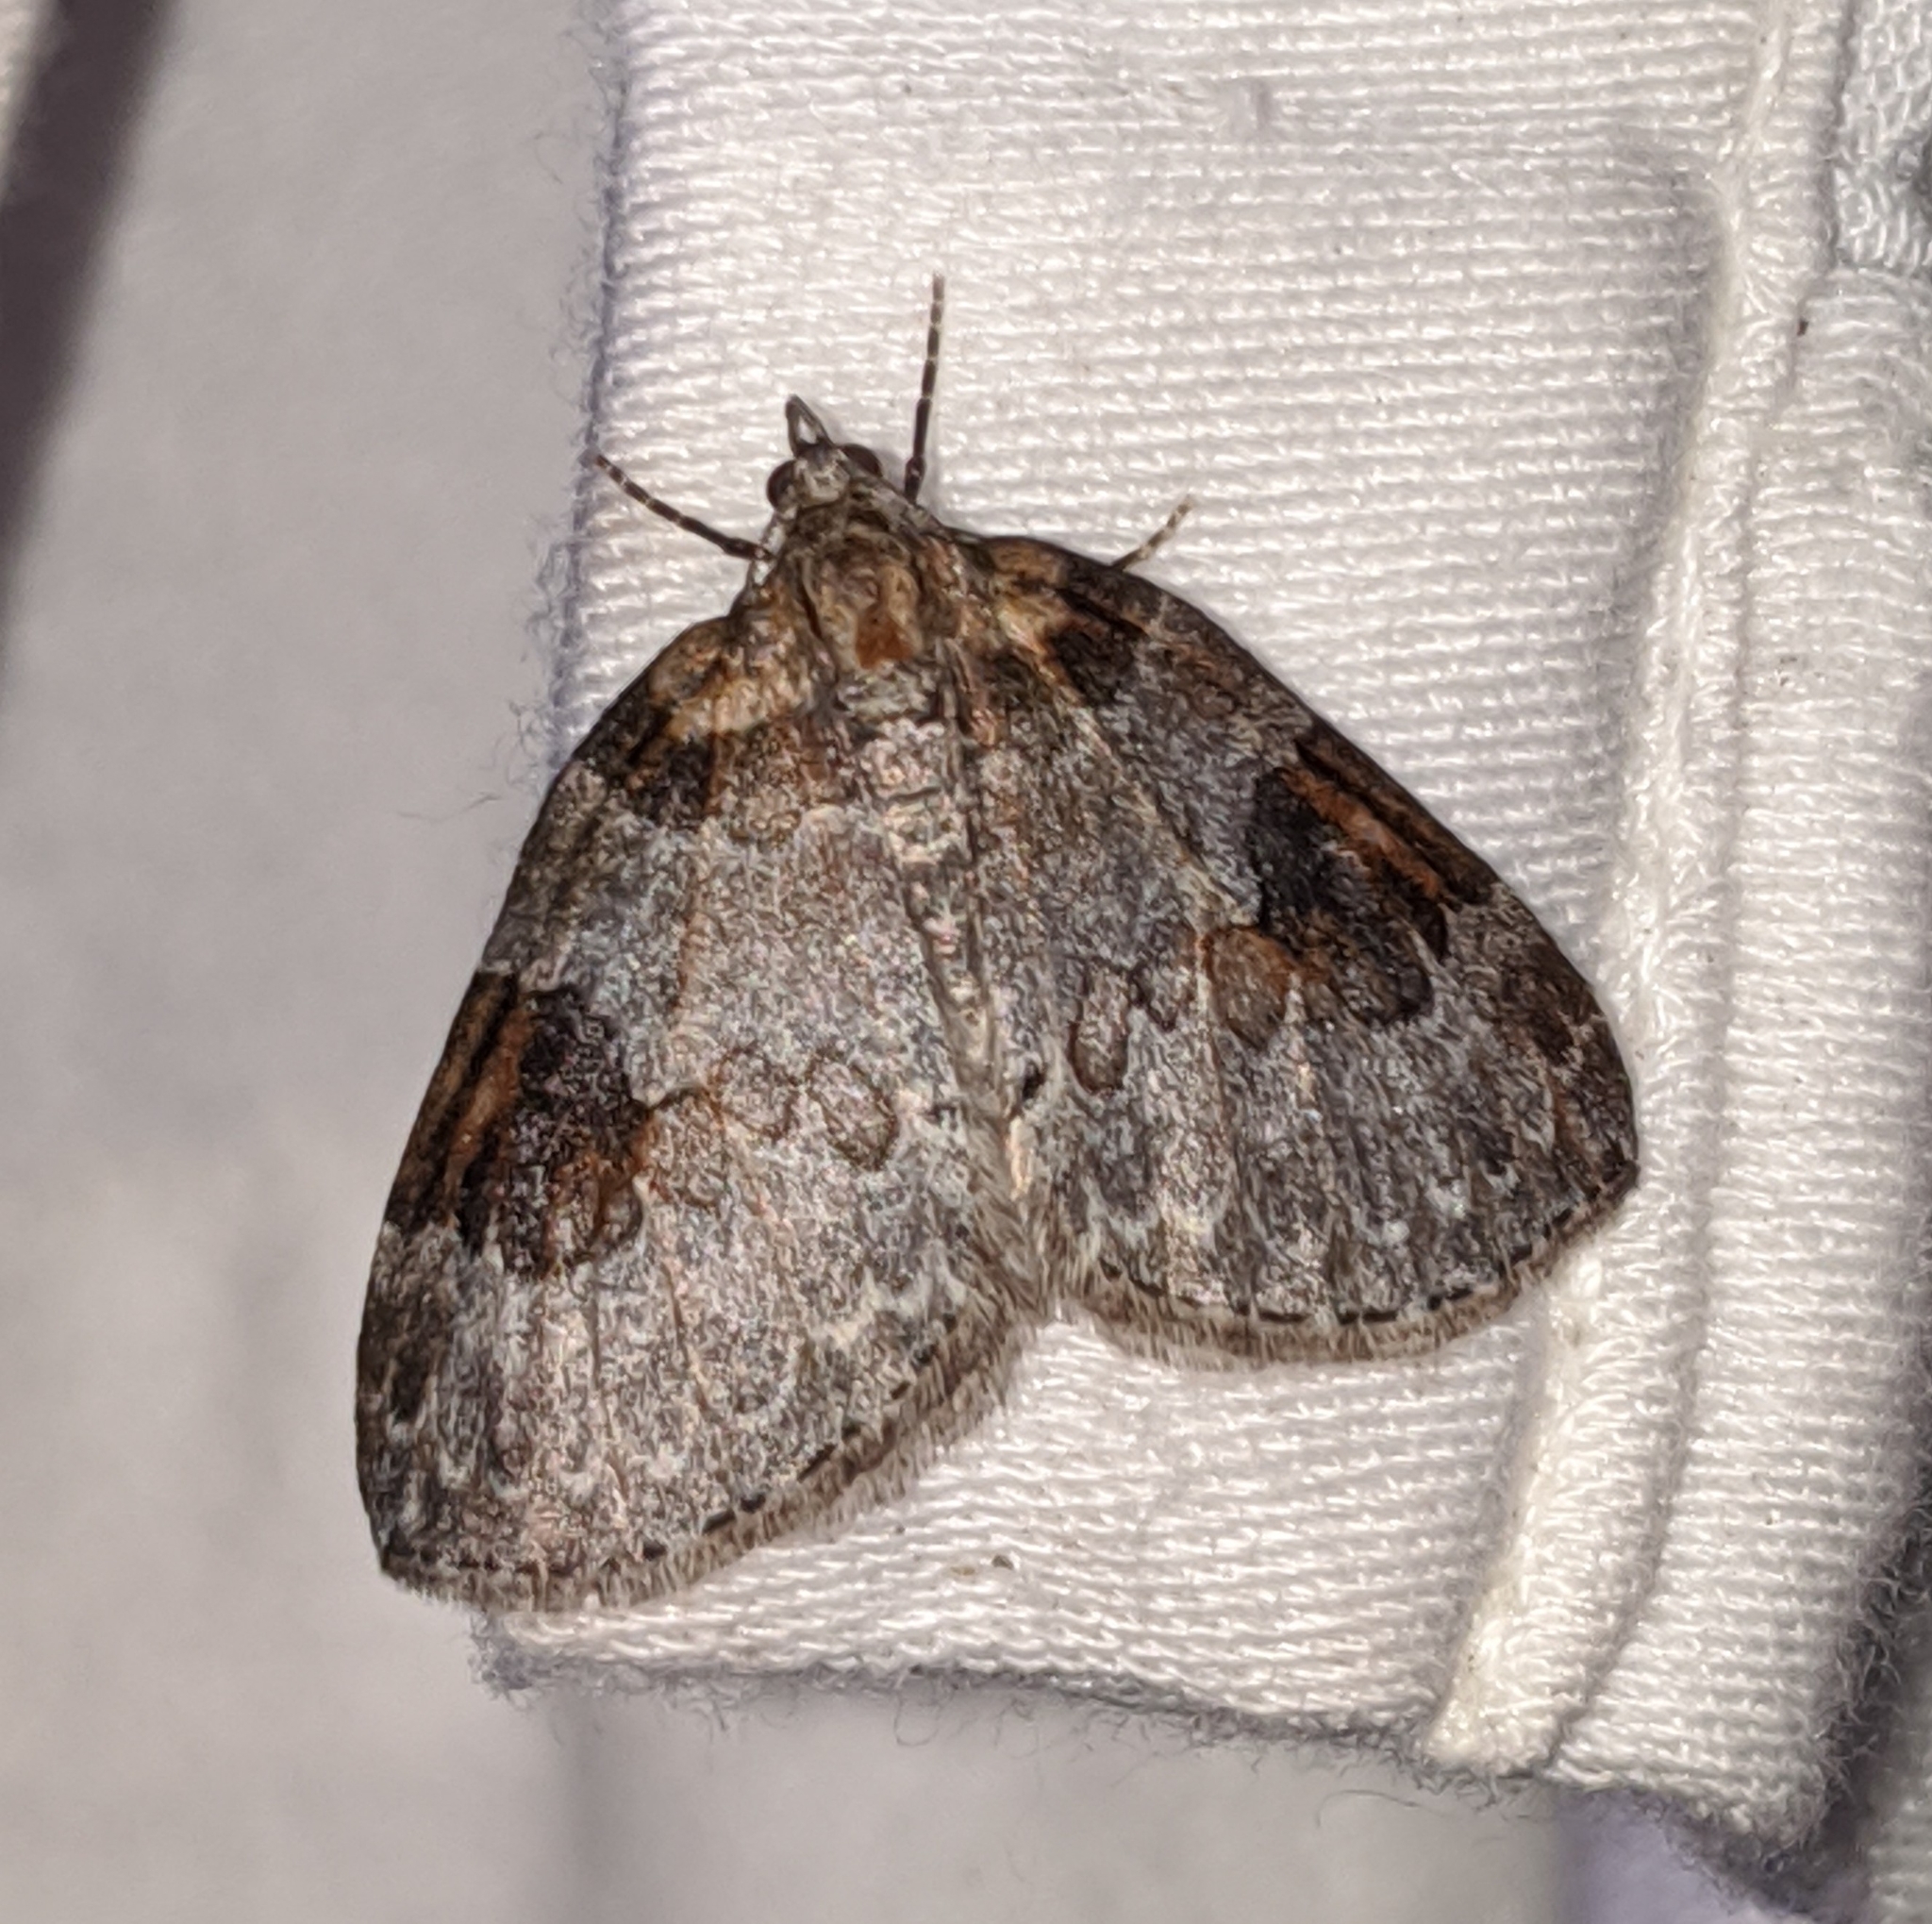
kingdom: Animalia
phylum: Arthropoda
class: Insecta
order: Lepidoptera
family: Geometridae
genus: Plemyria
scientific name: Plemyria georgii
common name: George's carpet moth
